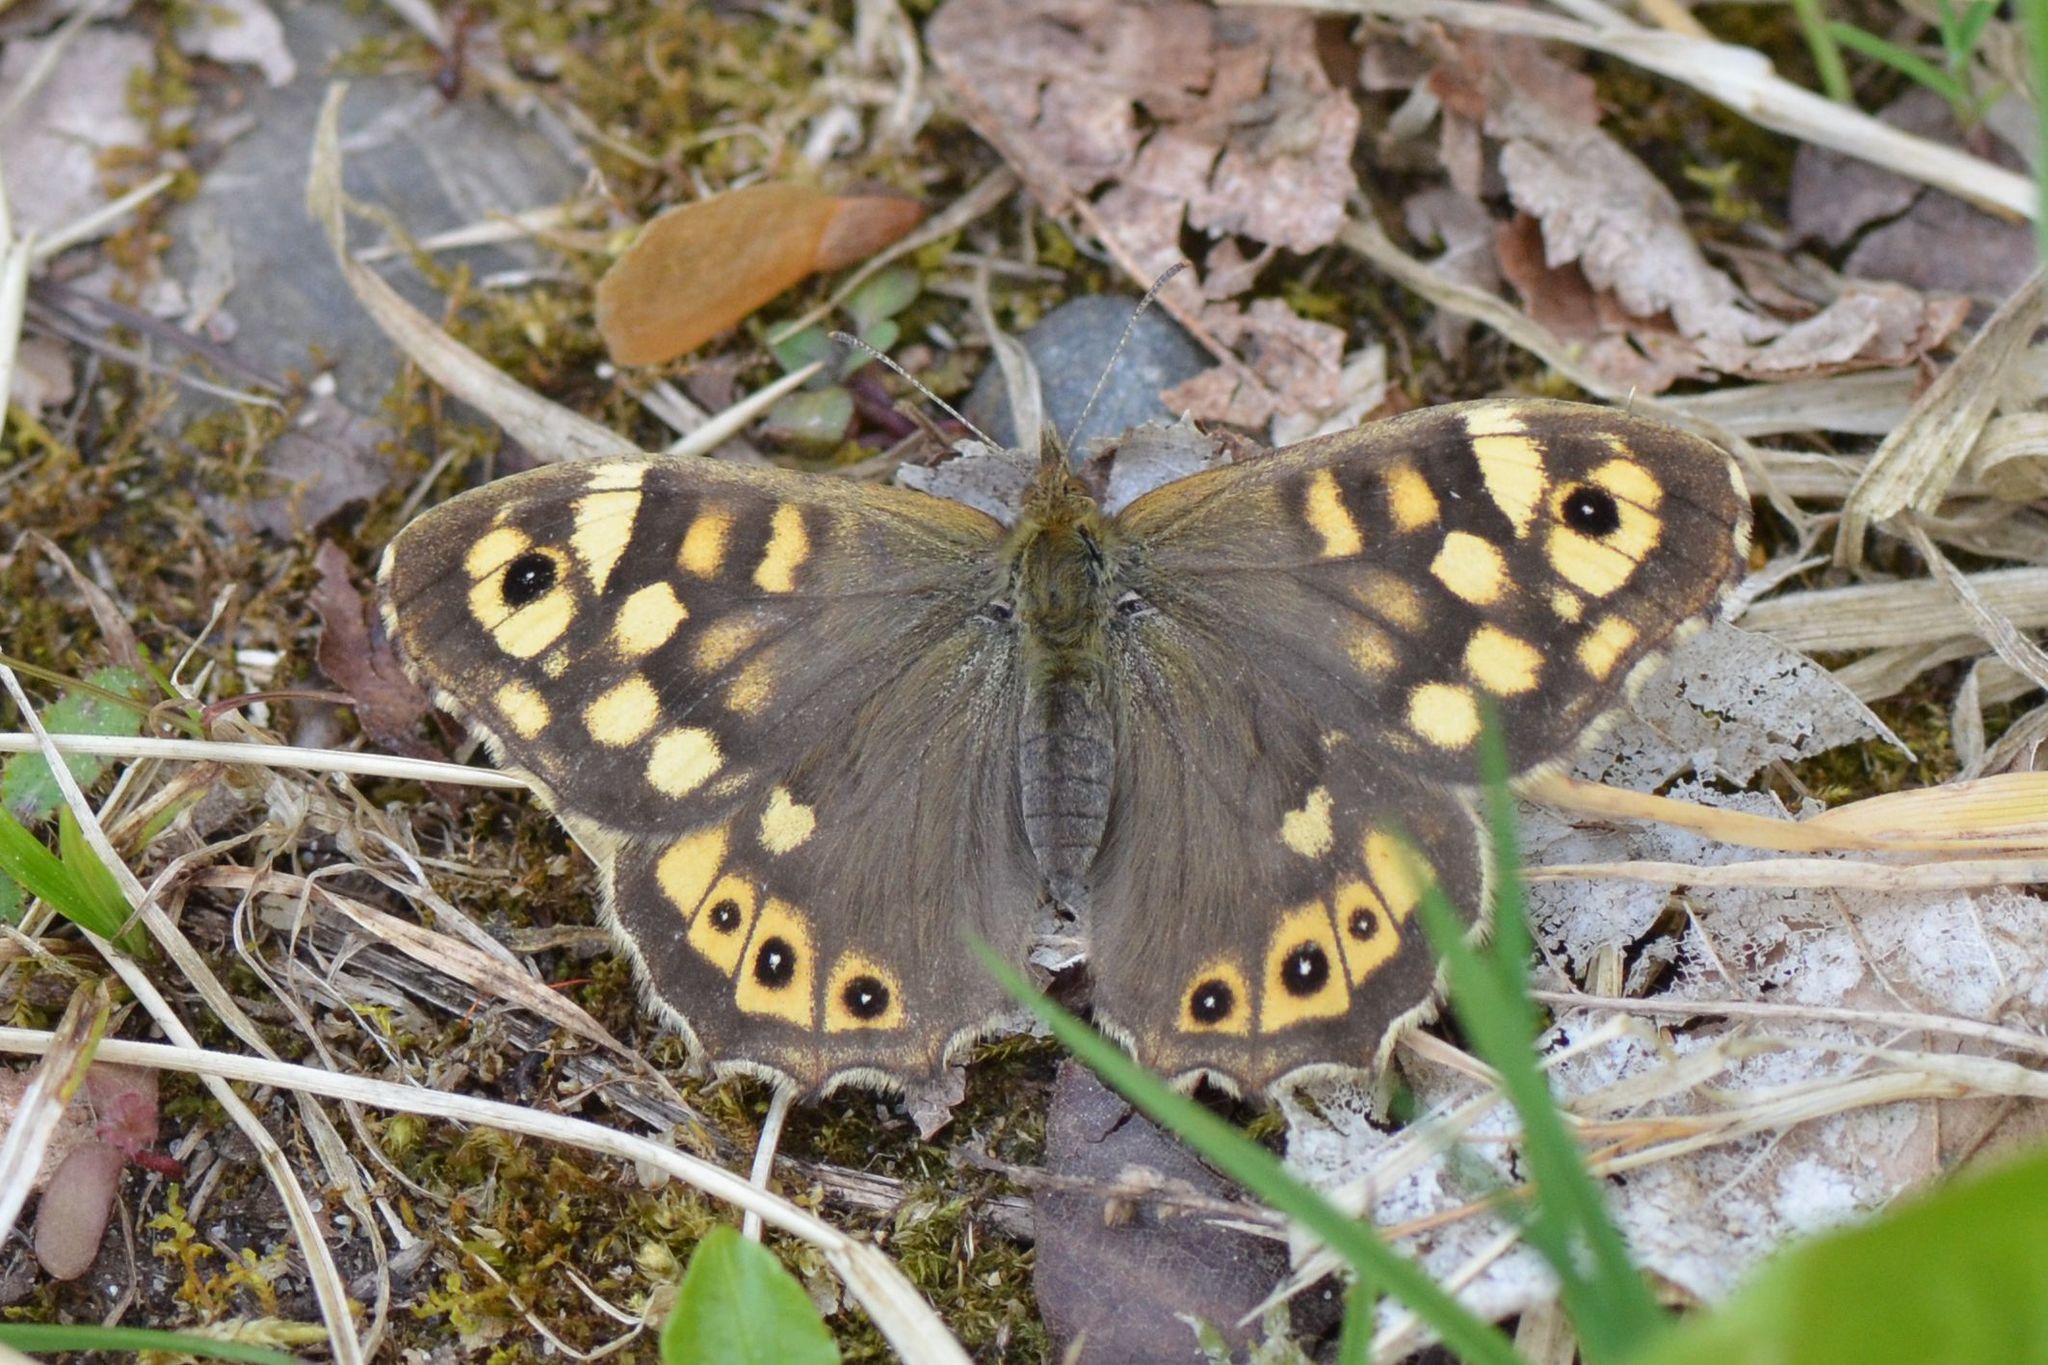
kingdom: Animalia
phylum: Arthropoda
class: Insecta
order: Lepidoptera
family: Nymphalidae
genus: Pararge
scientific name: Pararge aegeria
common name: Speckled wood
